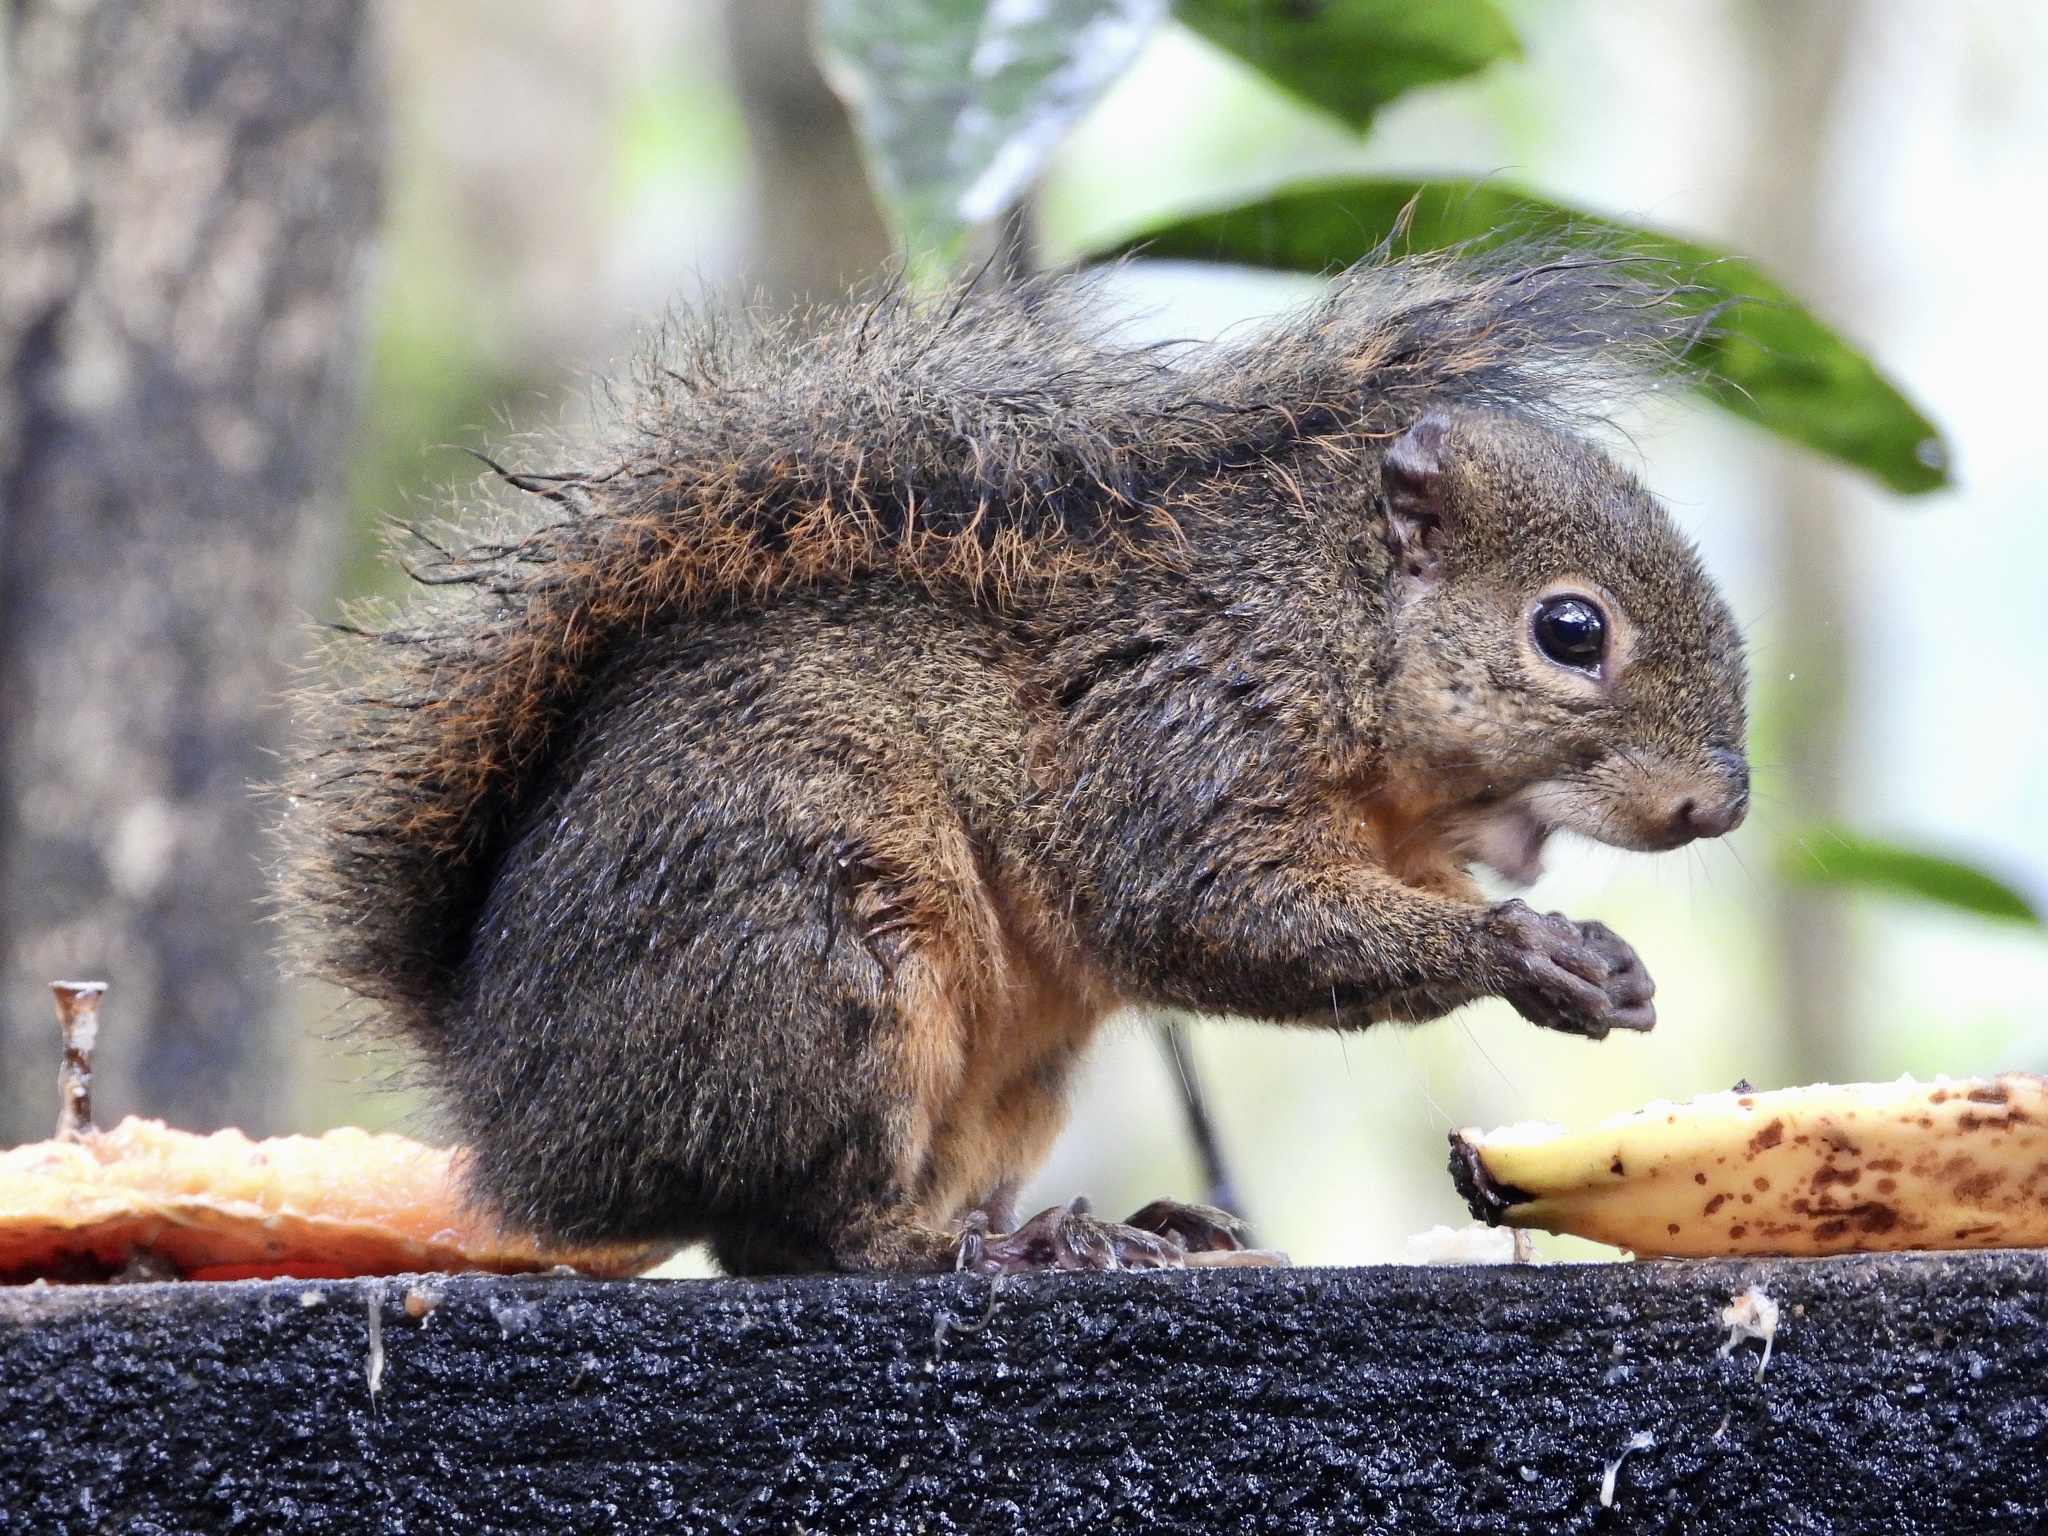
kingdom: Animalia
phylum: Chordata
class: Mammalia
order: Rodentia
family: Sciuridae
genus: Sciurus
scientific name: Sciurus granatensis
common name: Red-tailed squirrel
